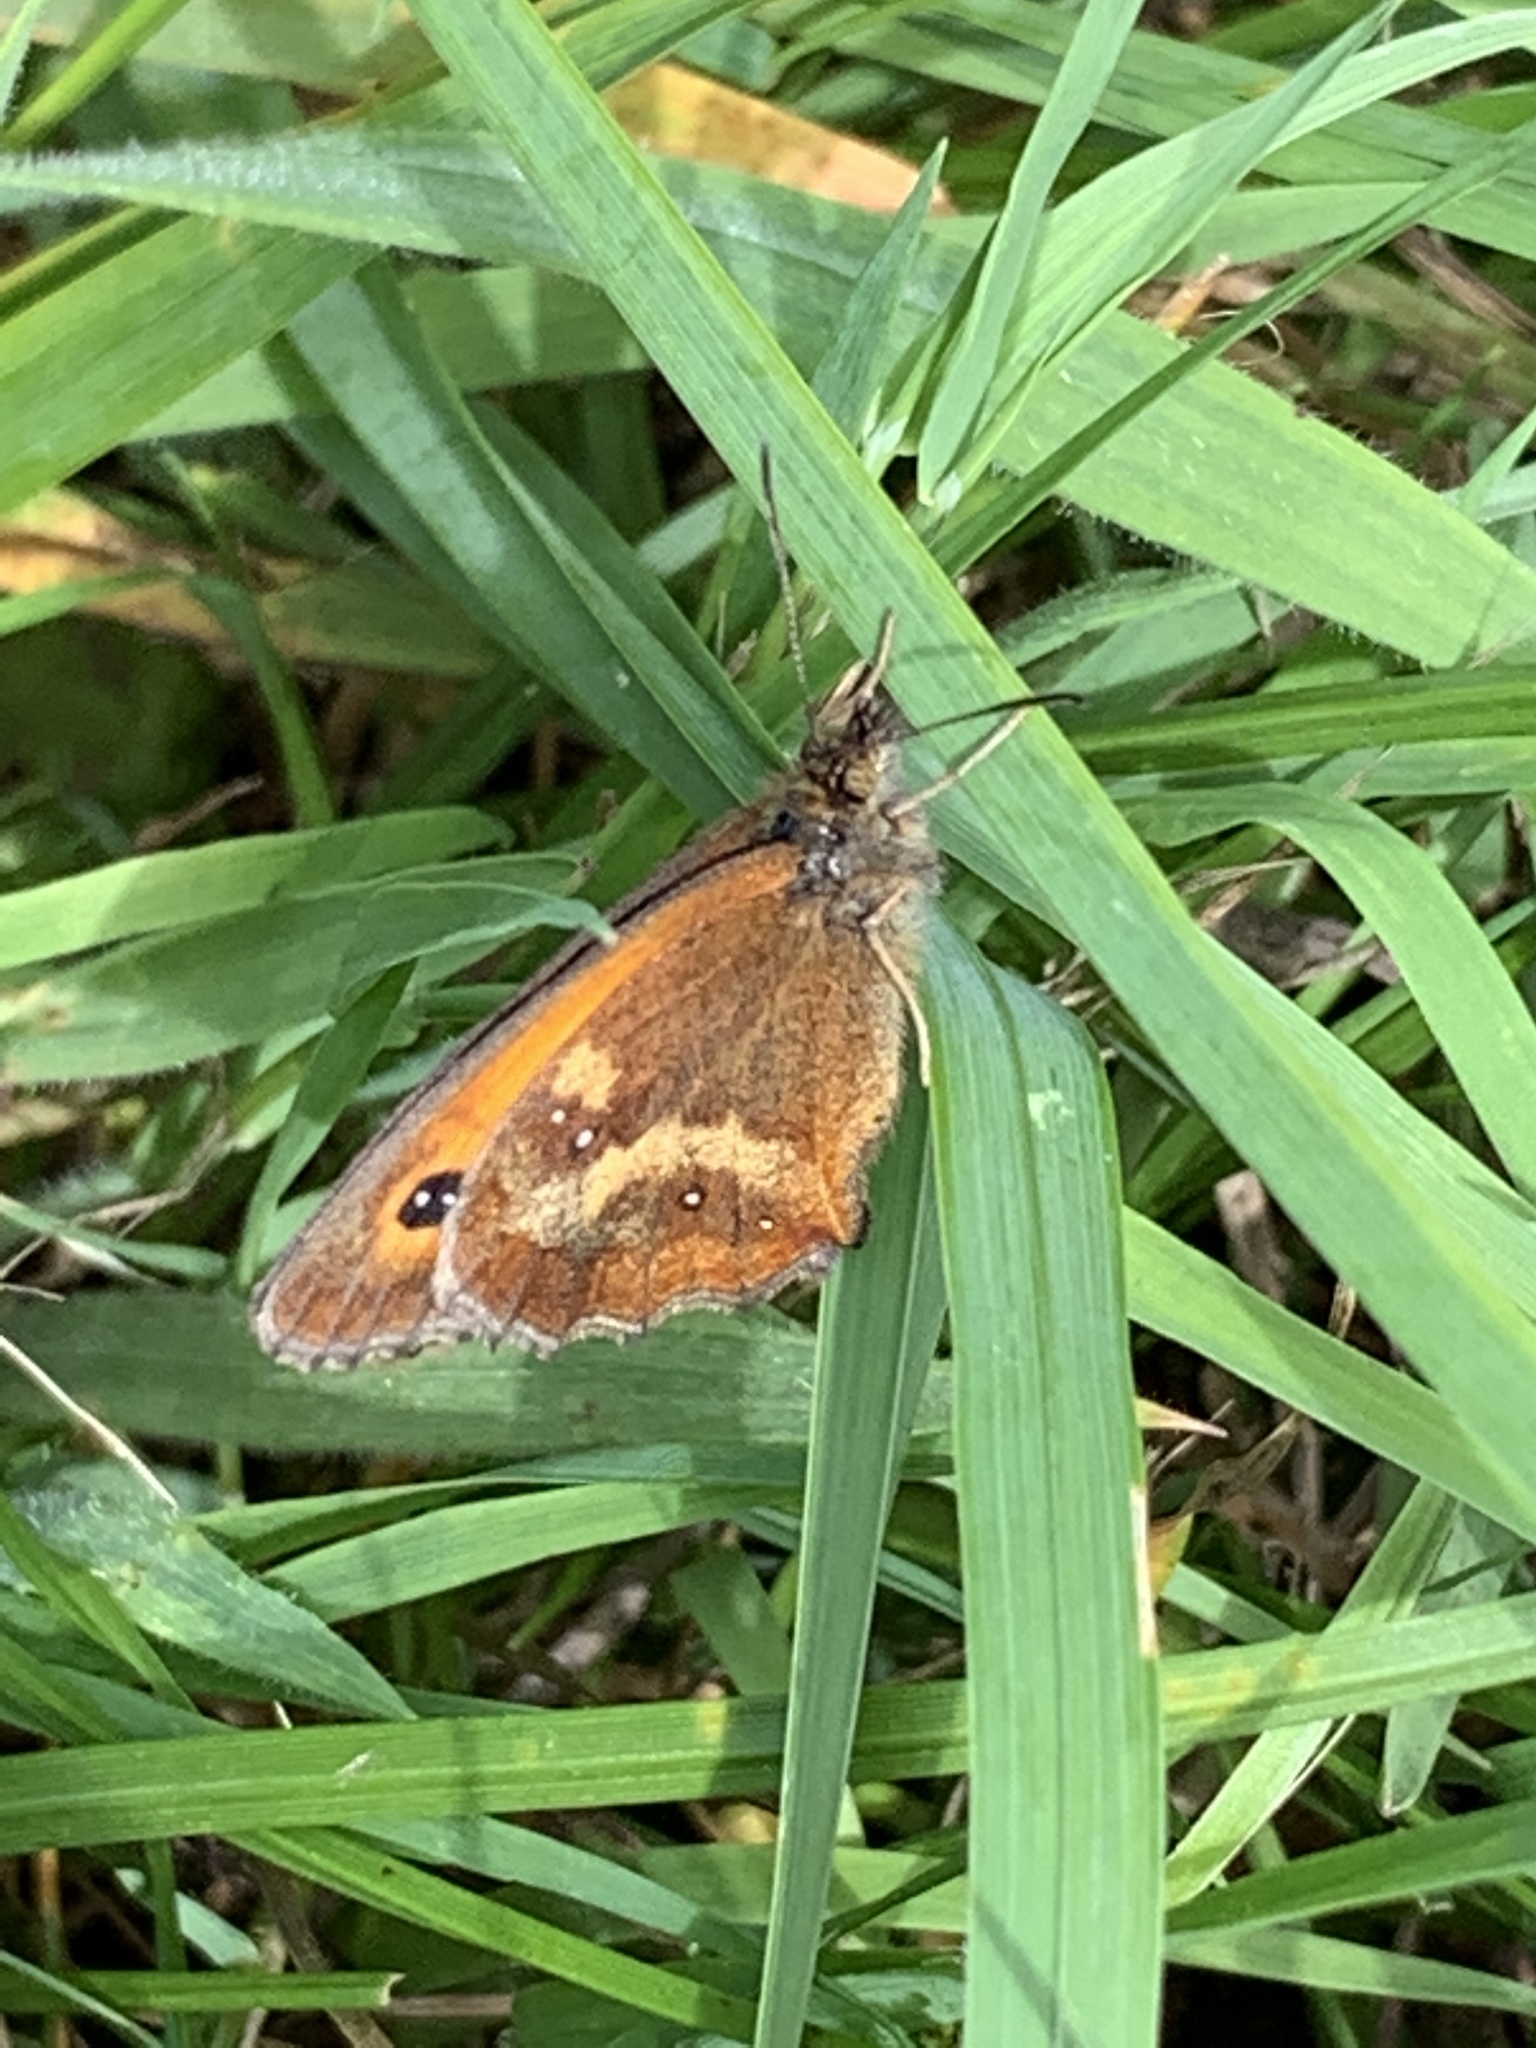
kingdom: Animalia
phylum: Arthropoda
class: Insecta
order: Lepidoptera
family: Nymphalidae
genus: Pyronia
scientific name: Pyronia tithonus
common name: Gatekeeper
